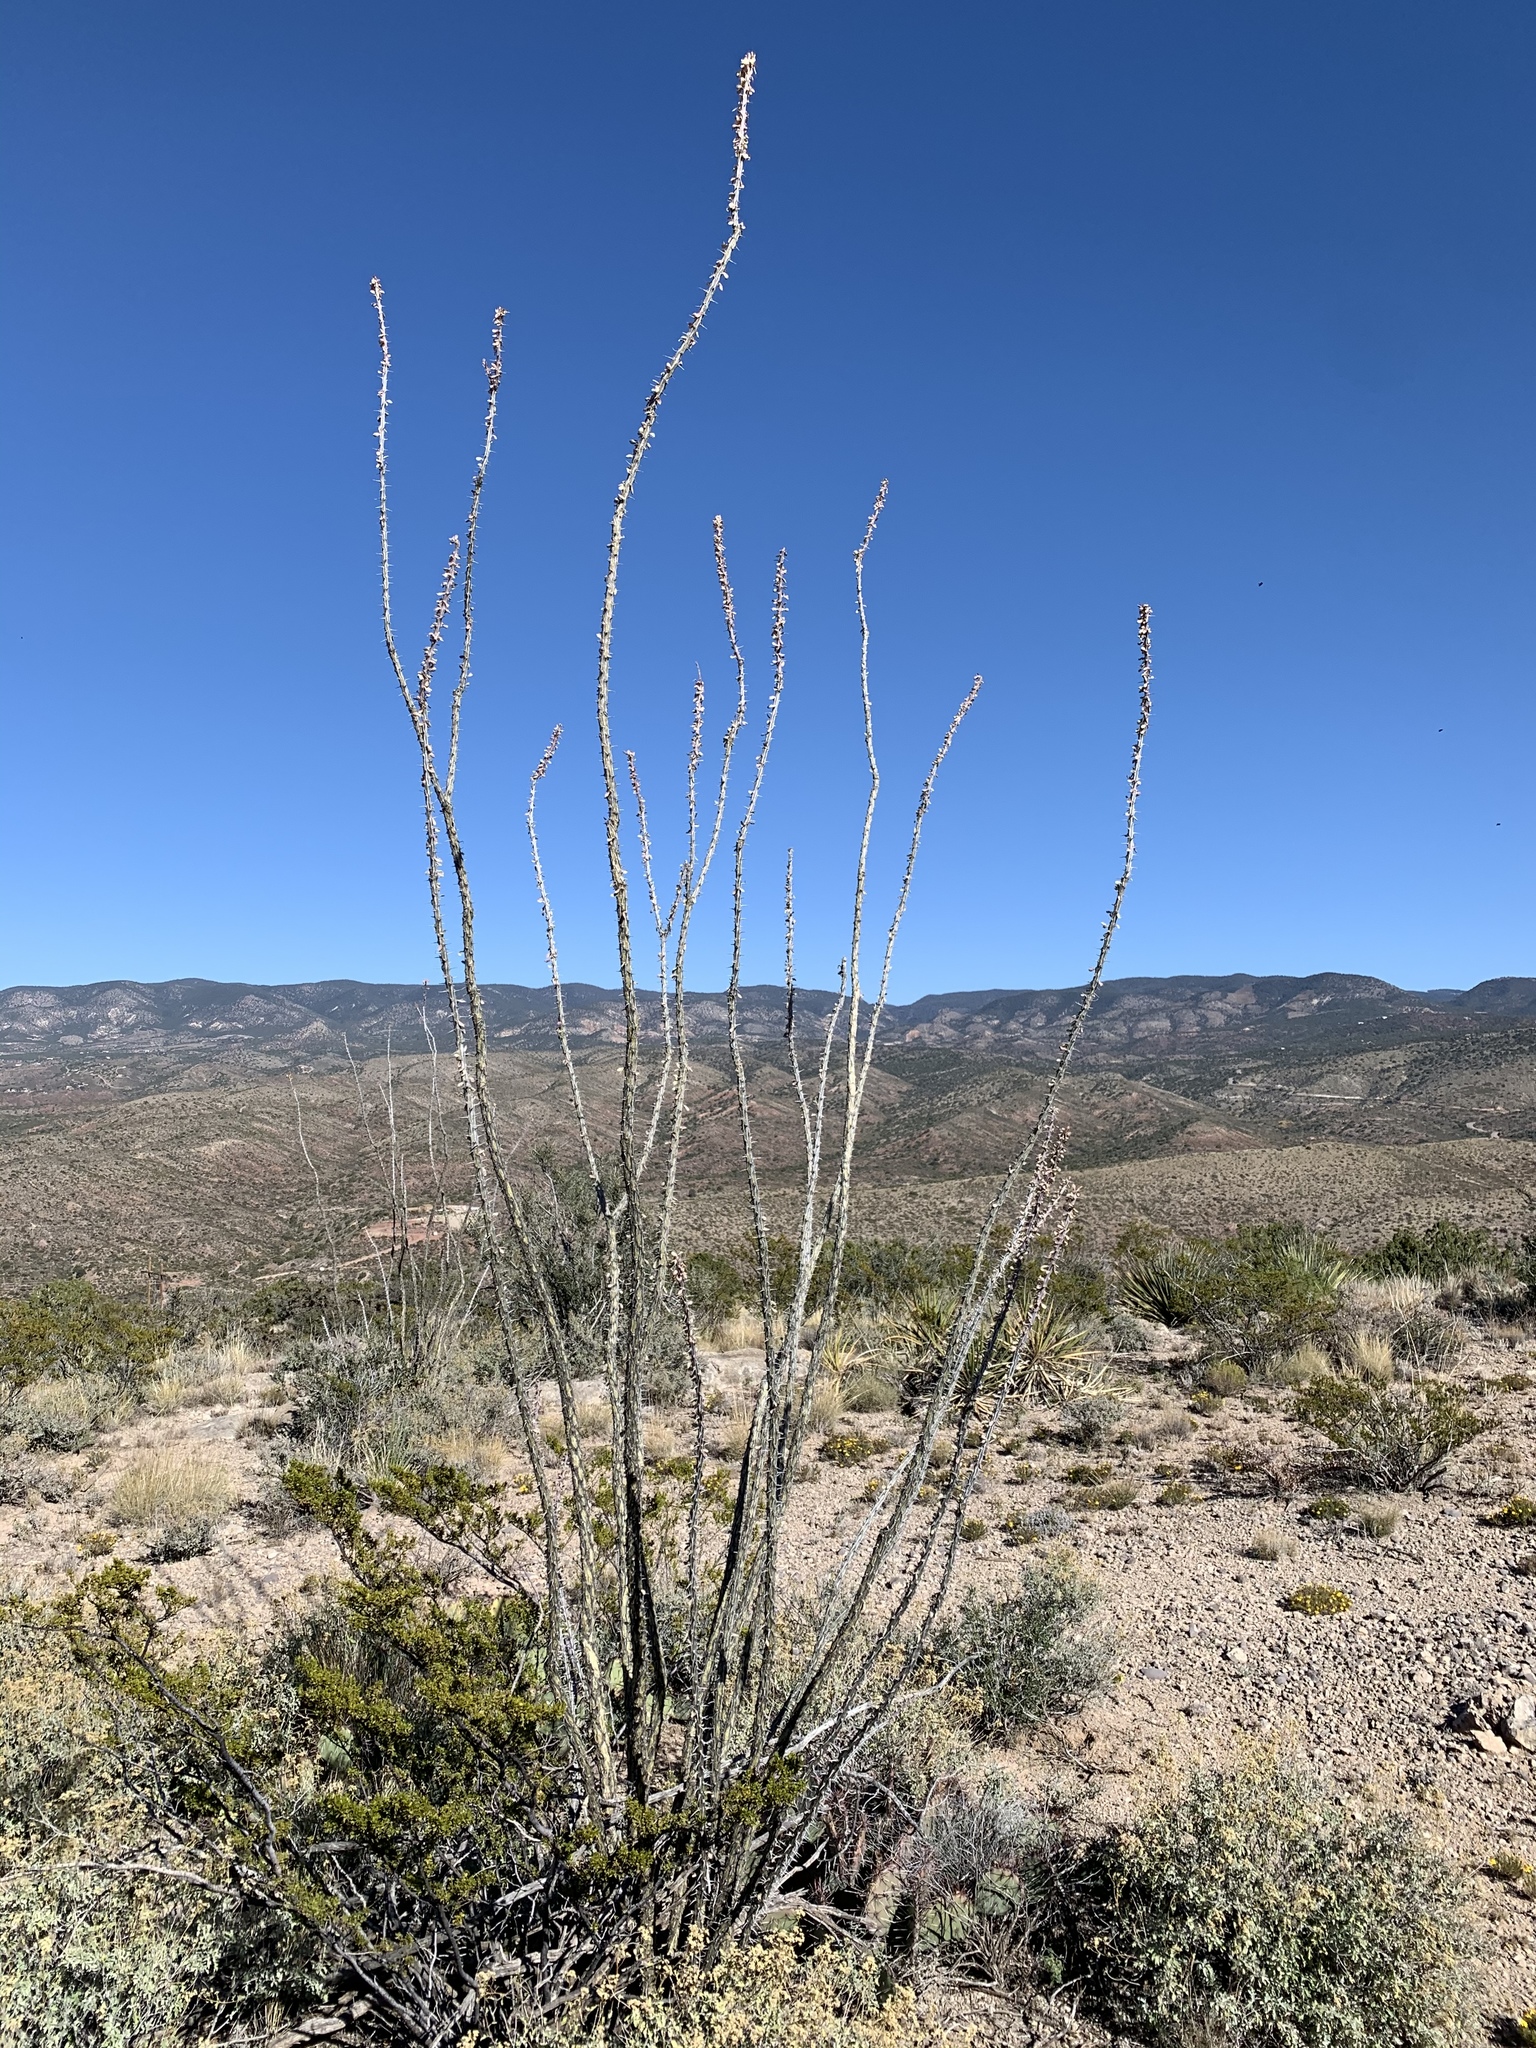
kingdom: Plantae
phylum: Tracheophyta
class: Magnoliopsida
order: Ericales
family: Fouquieriaceae
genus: Fouquieria
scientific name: Fouquieria splendens
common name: Vine-cactus
